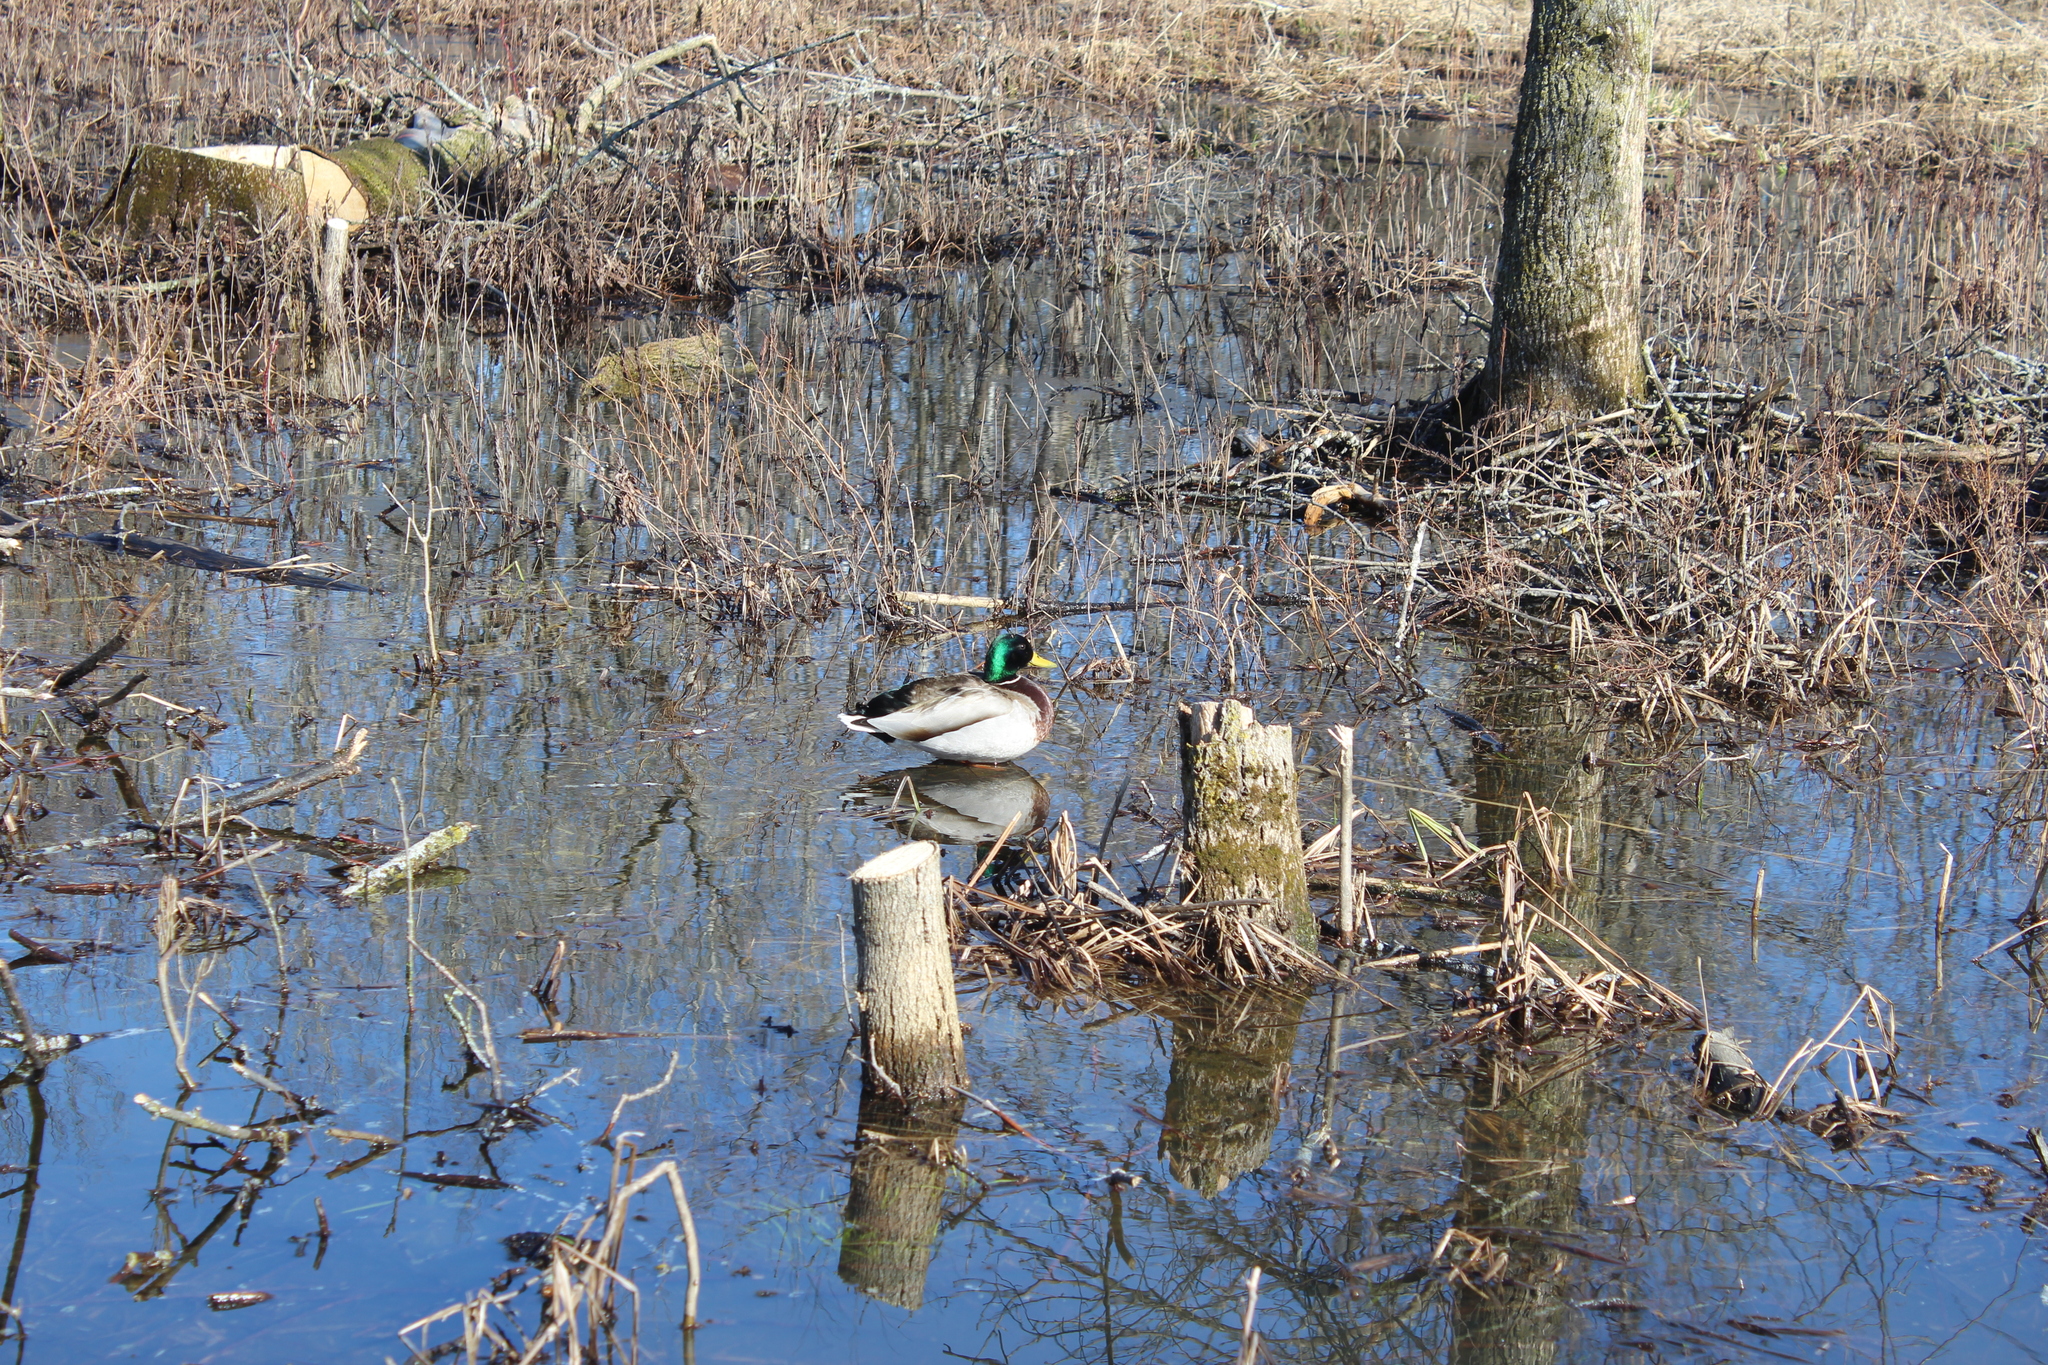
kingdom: Animalia
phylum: Chordata
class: Aves
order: Anseriformes
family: Anatidae
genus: Anas
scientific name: Anas platyrhynchos
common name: Mallard
